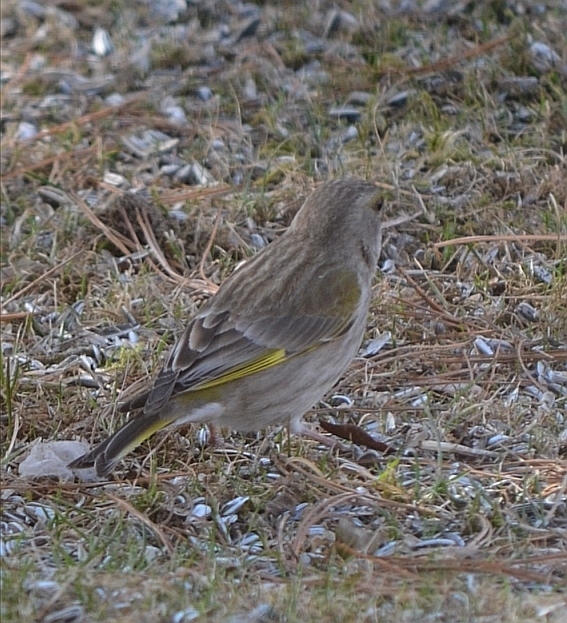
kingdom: Plantae
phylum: Tracheophyta
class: Liliopsida
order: Poales
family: Poaceae
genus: Chloris
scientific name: Chloris chloris
